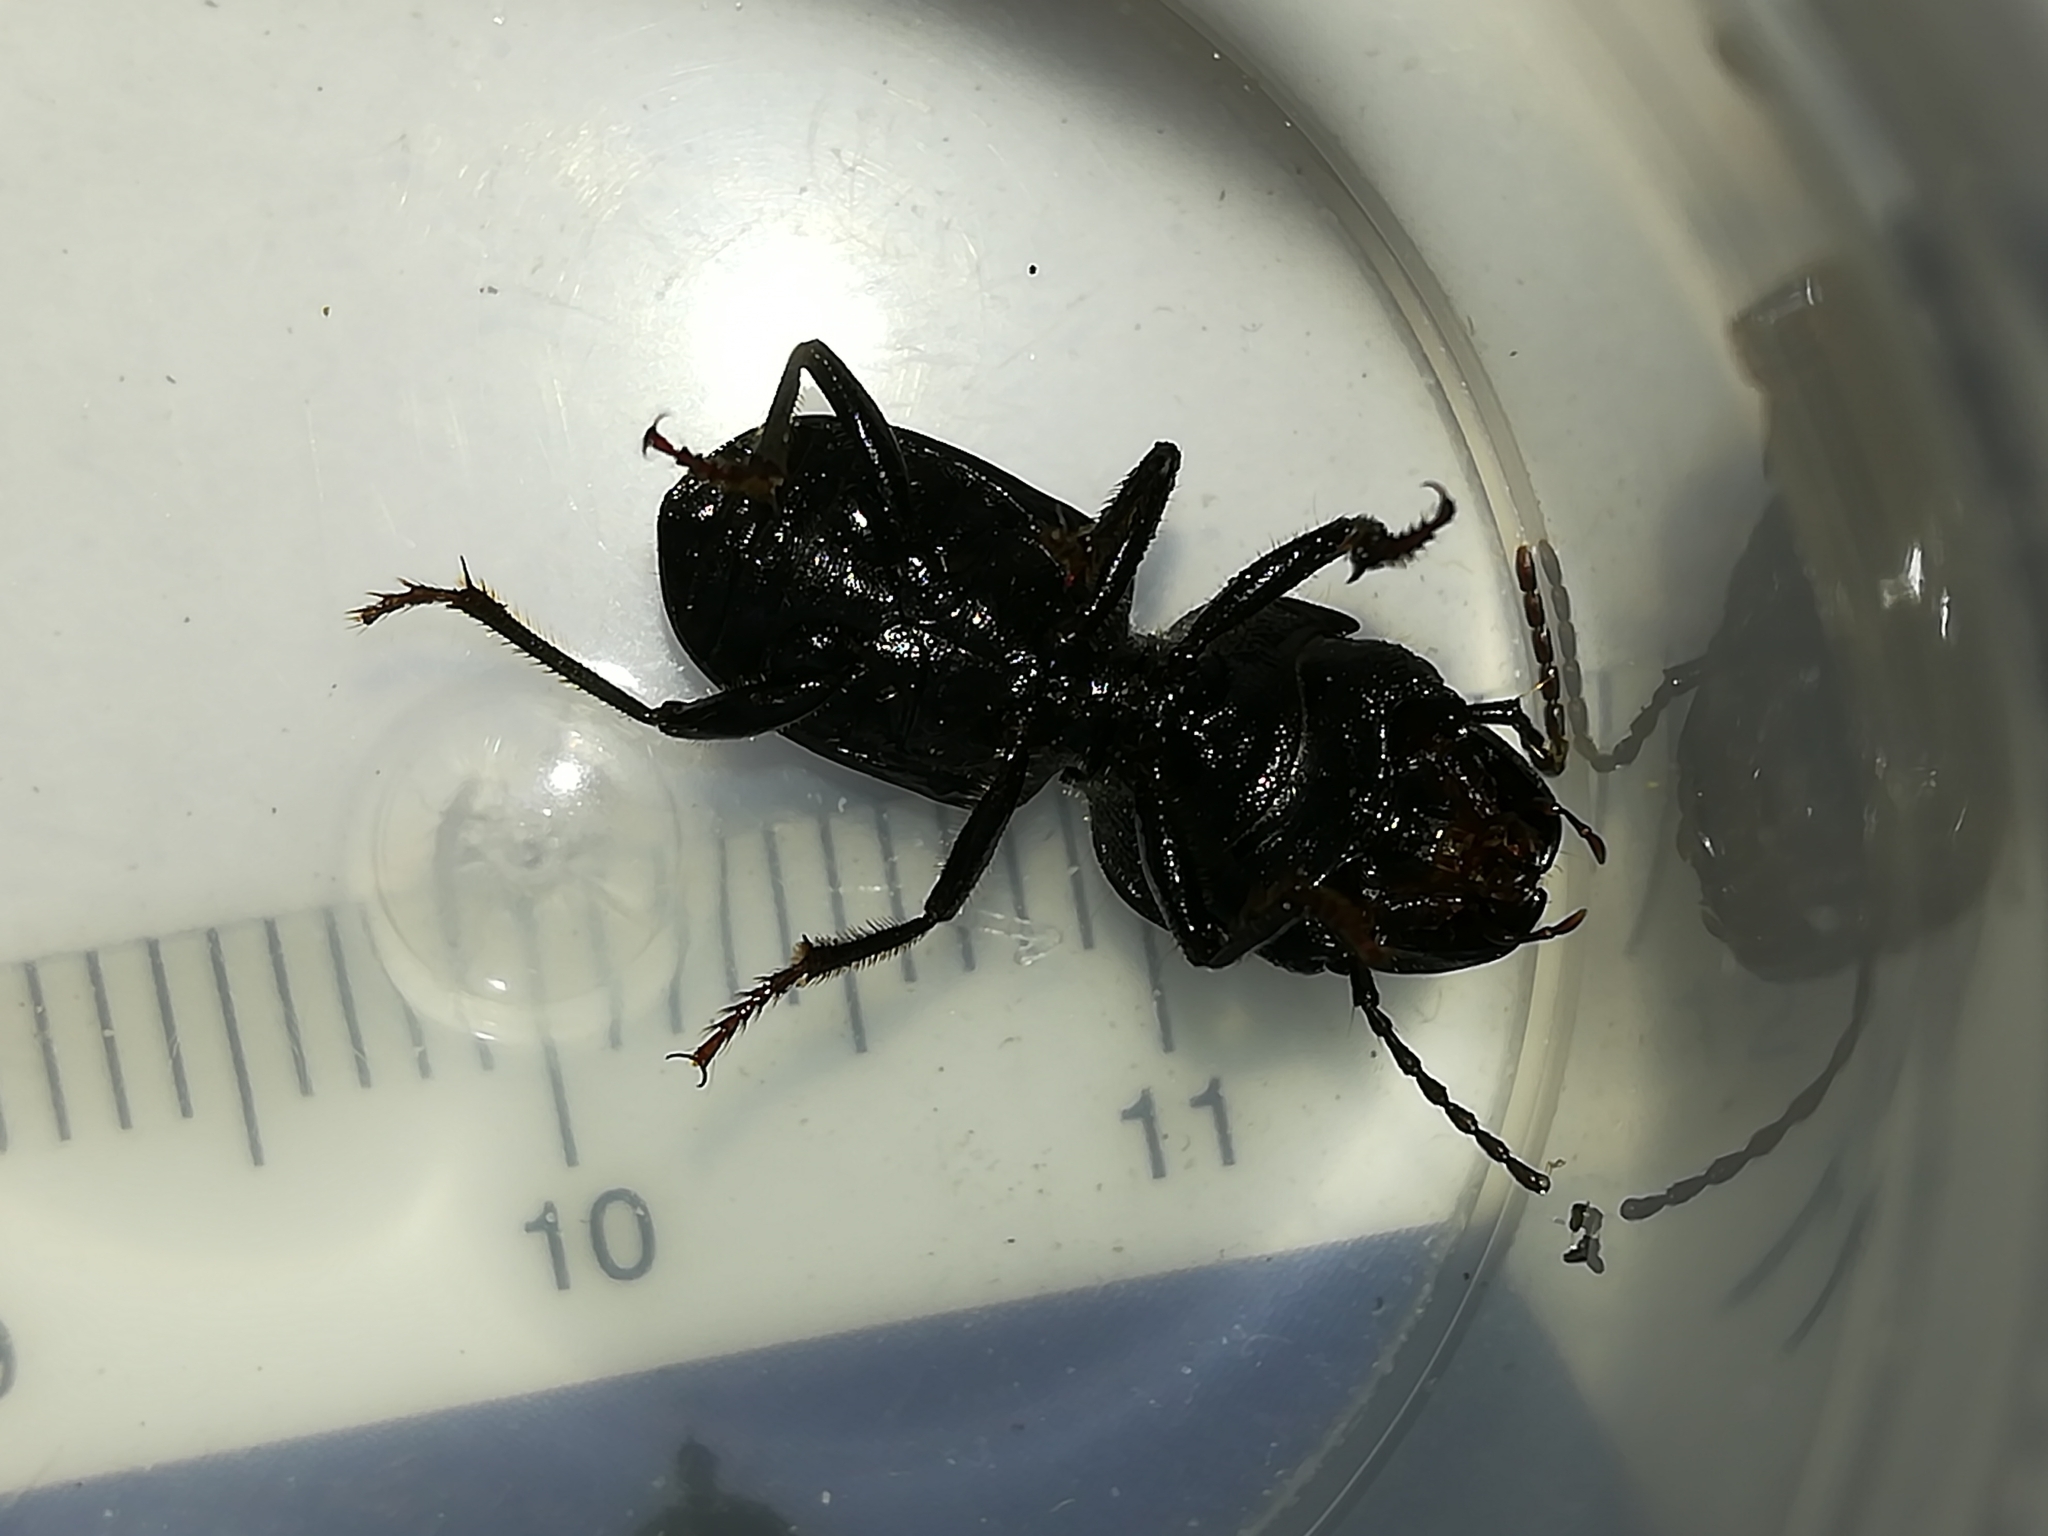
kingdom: Animalia
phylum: Arthropoda
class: Insecta
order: Coleoptera
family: Carabidae
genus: Dixus
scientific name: Dixus capito
